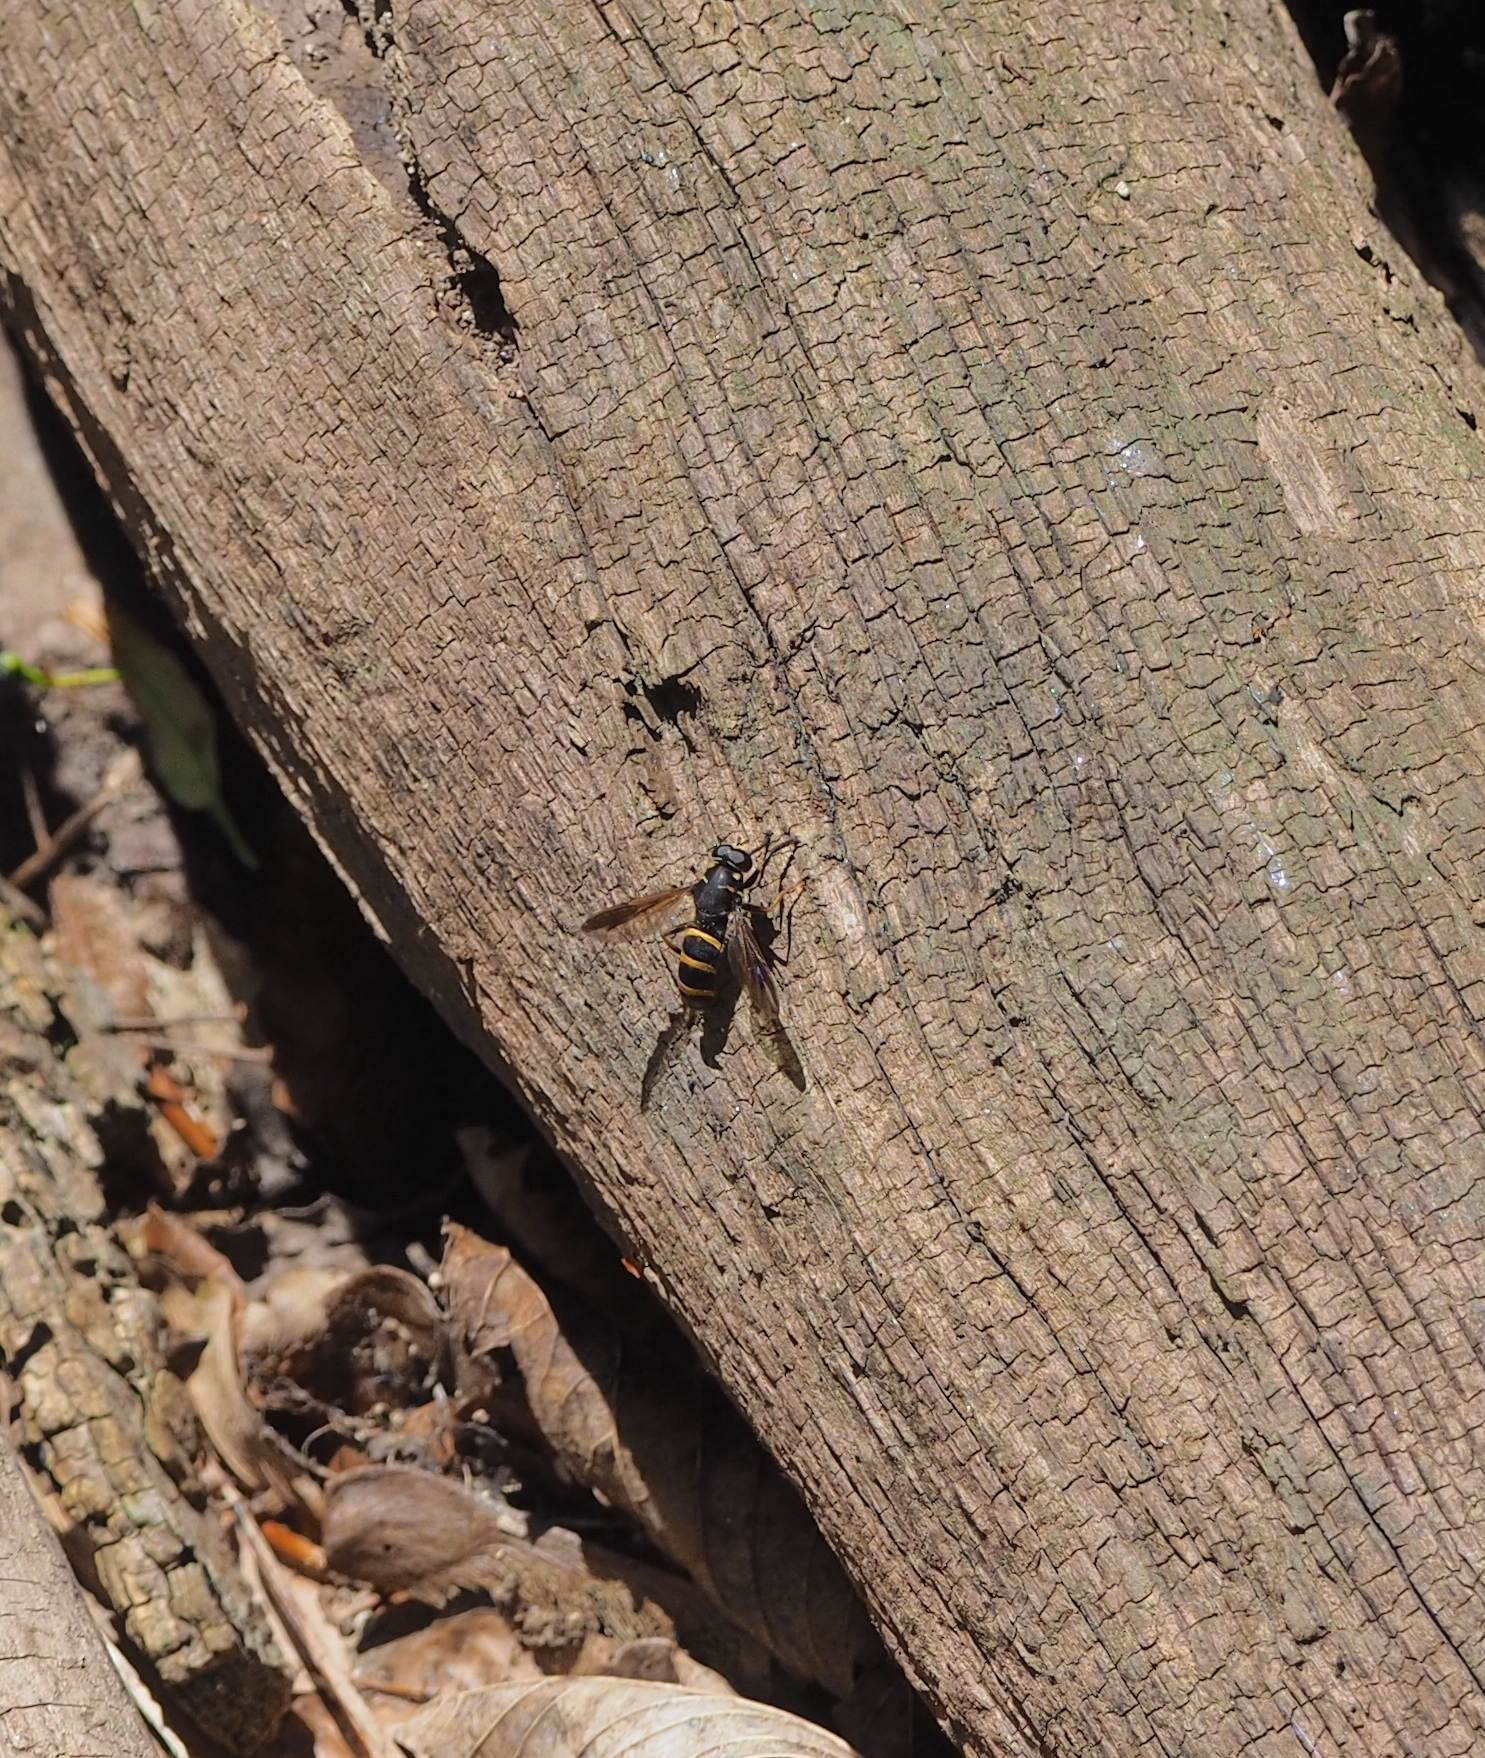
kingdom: Animalia
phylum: Arthropoda
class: Insecta
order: Diptera
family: Syrphidae
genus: Temnostoma
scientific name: Temnostoma bombylans
